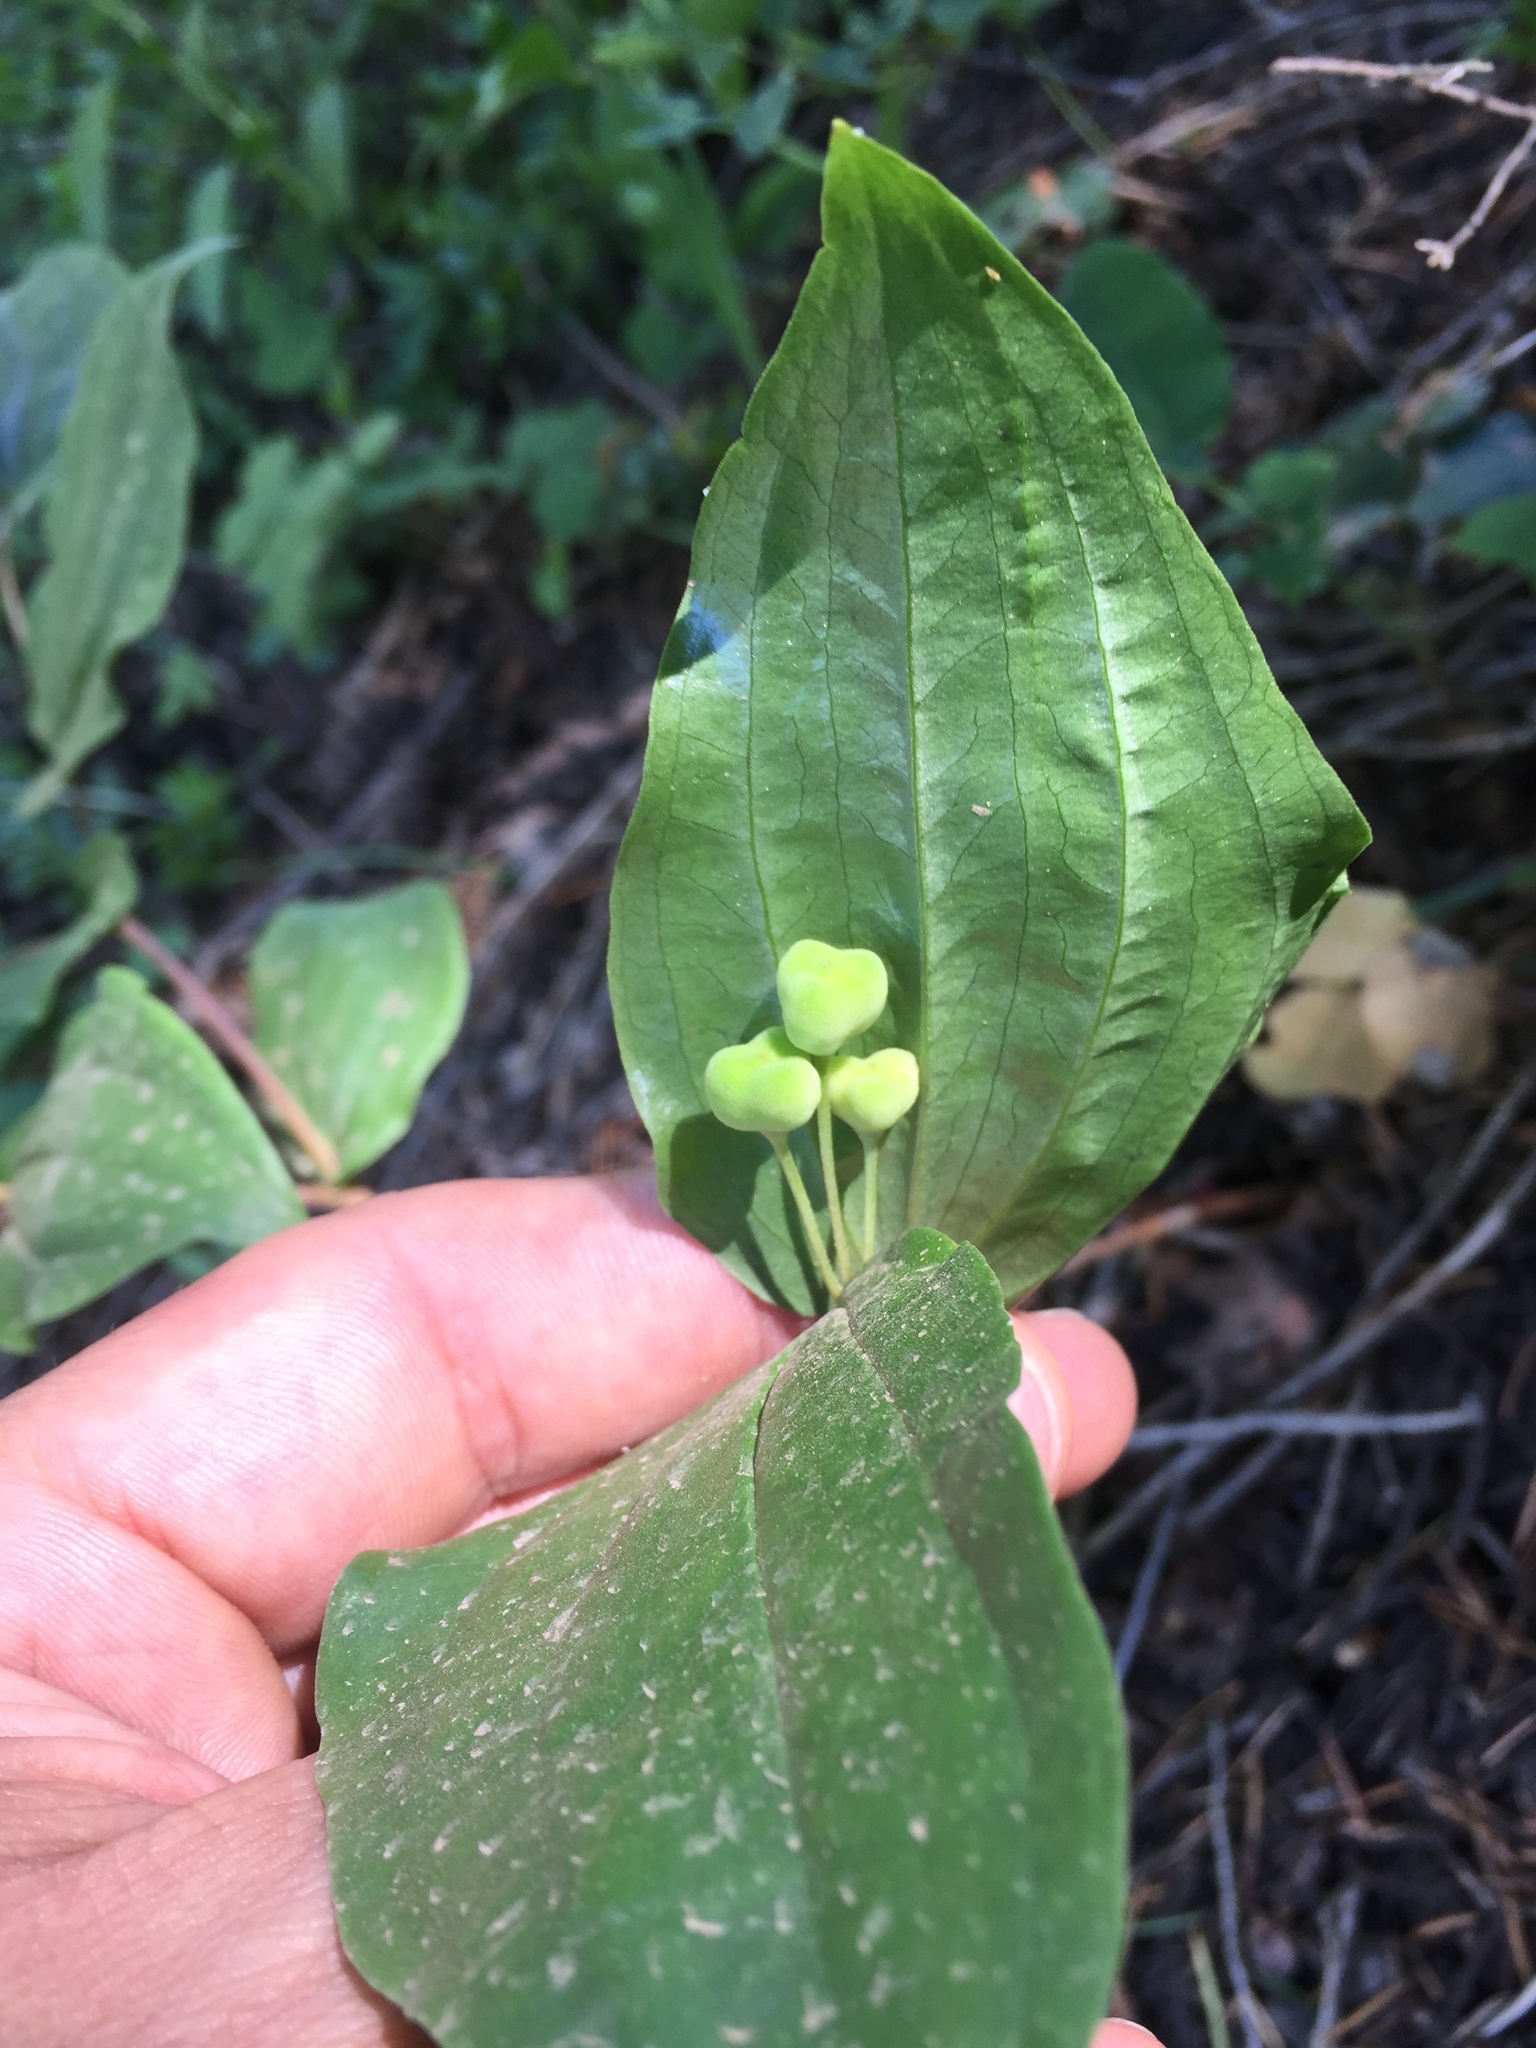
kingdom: Plantae
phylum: Tracheophyta
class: Liliopsida
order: Liliales
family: Liliaceae
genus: Prosartes
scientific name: Prosartes trachycarpa
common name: Rough-fruit fairy-bells
